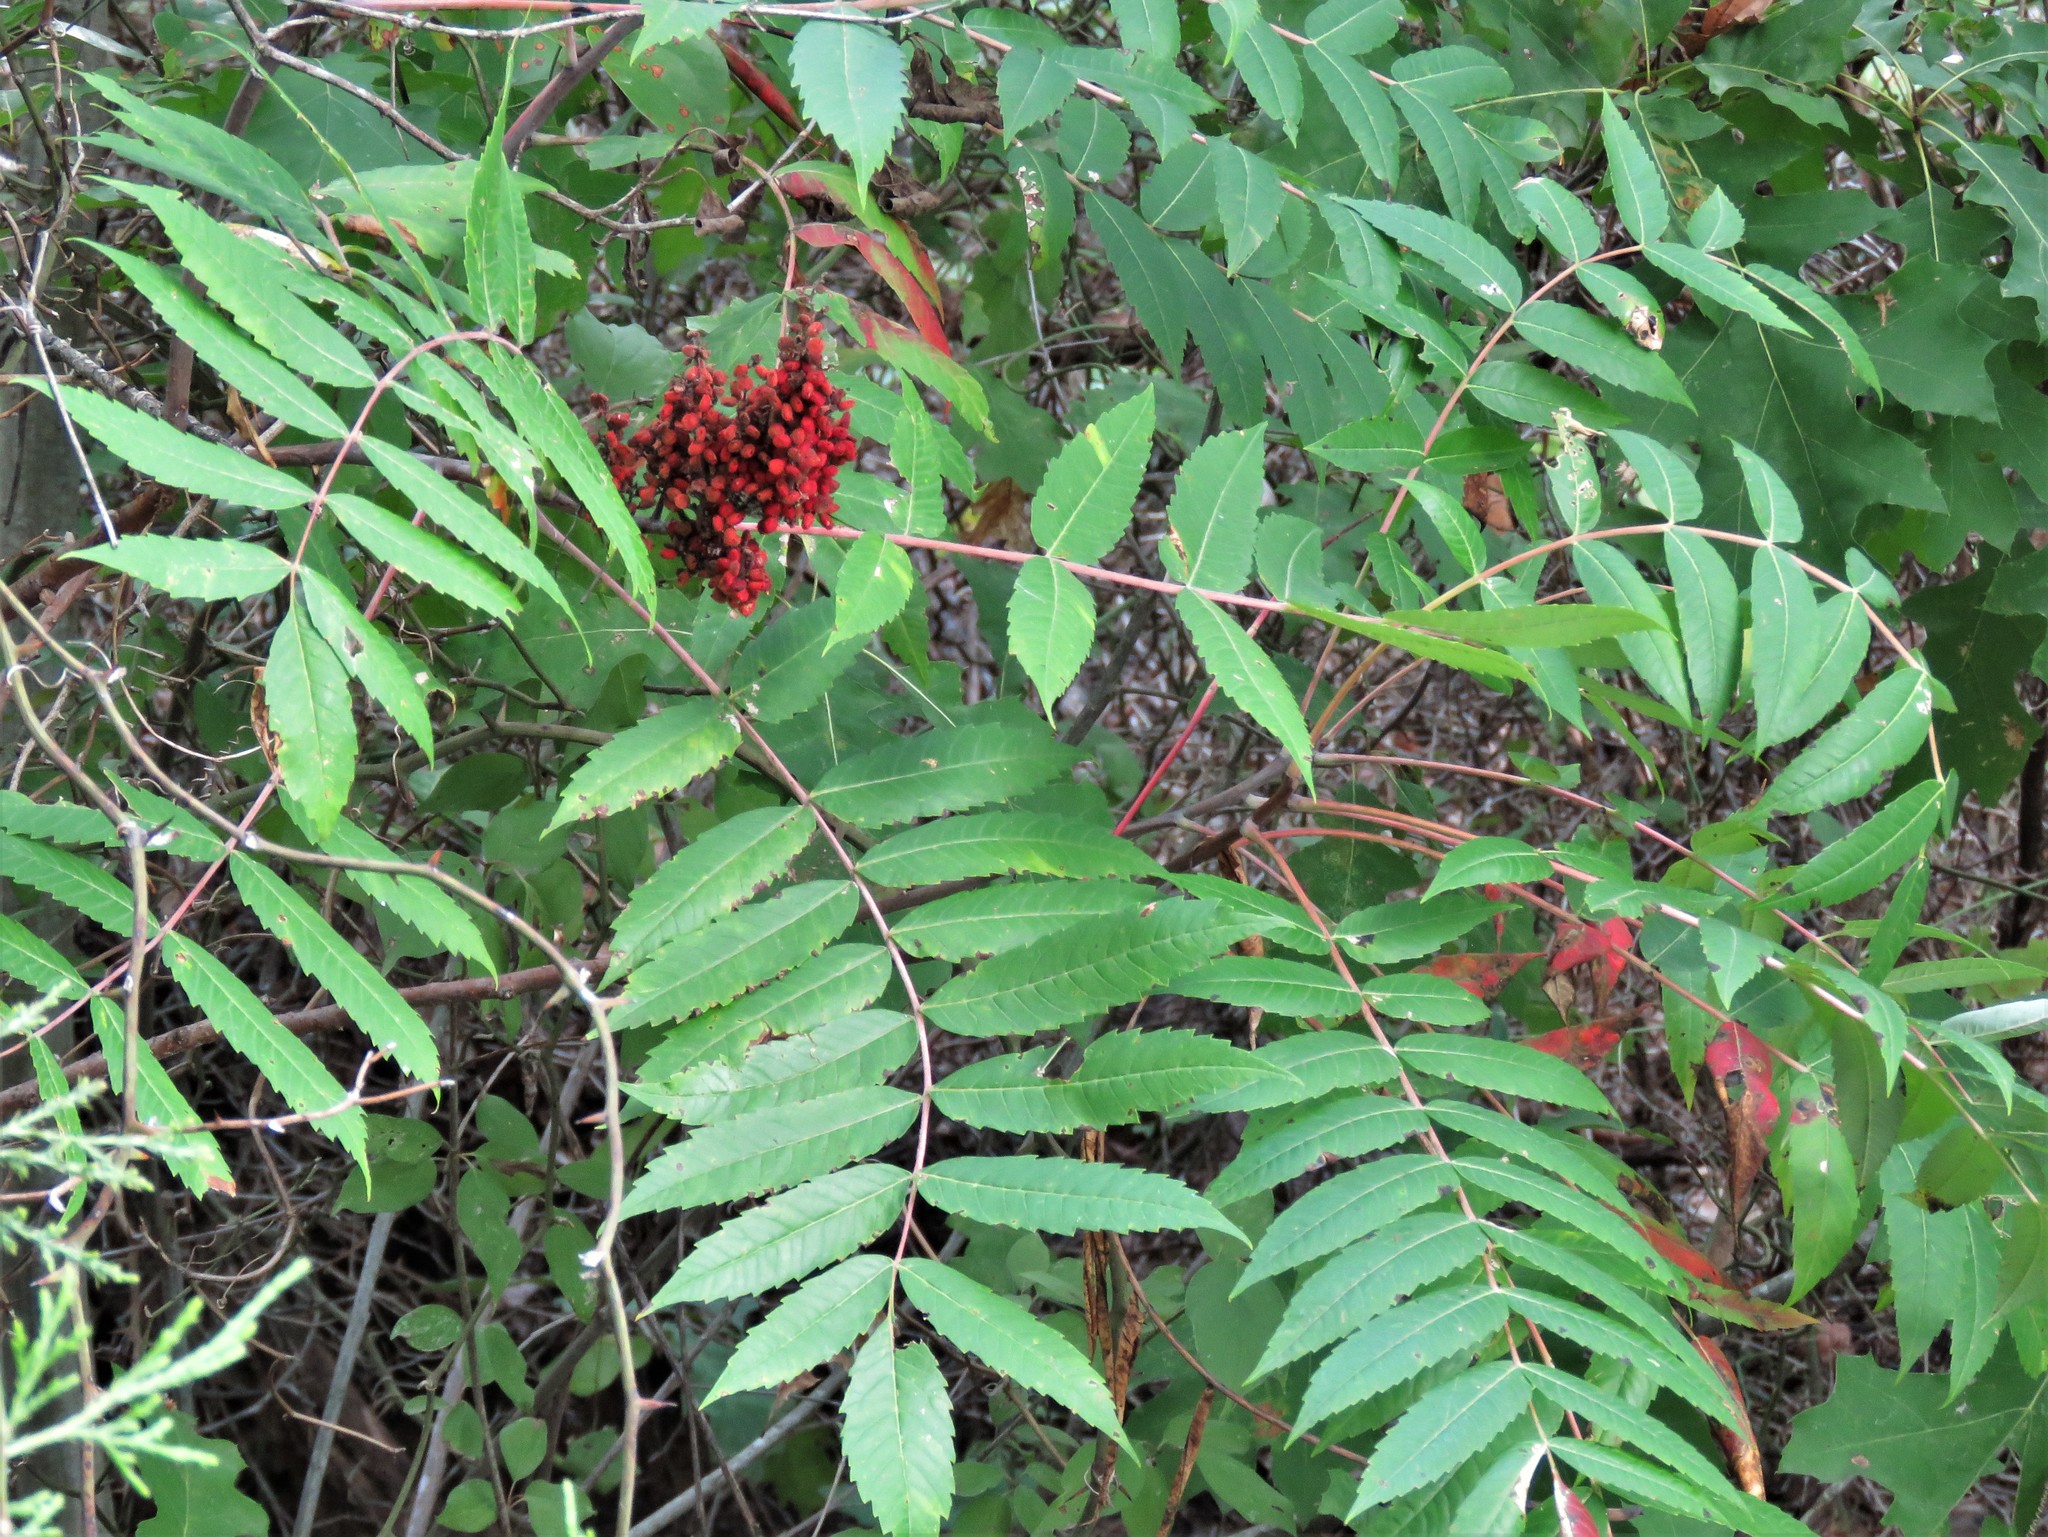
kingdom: Plantae
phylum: Tracheophyta
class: Magnoliopsida
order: Sapindales
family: Anacardiaceae
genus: Rhus
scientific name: Rhus glabra
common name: Scarlet sumac
